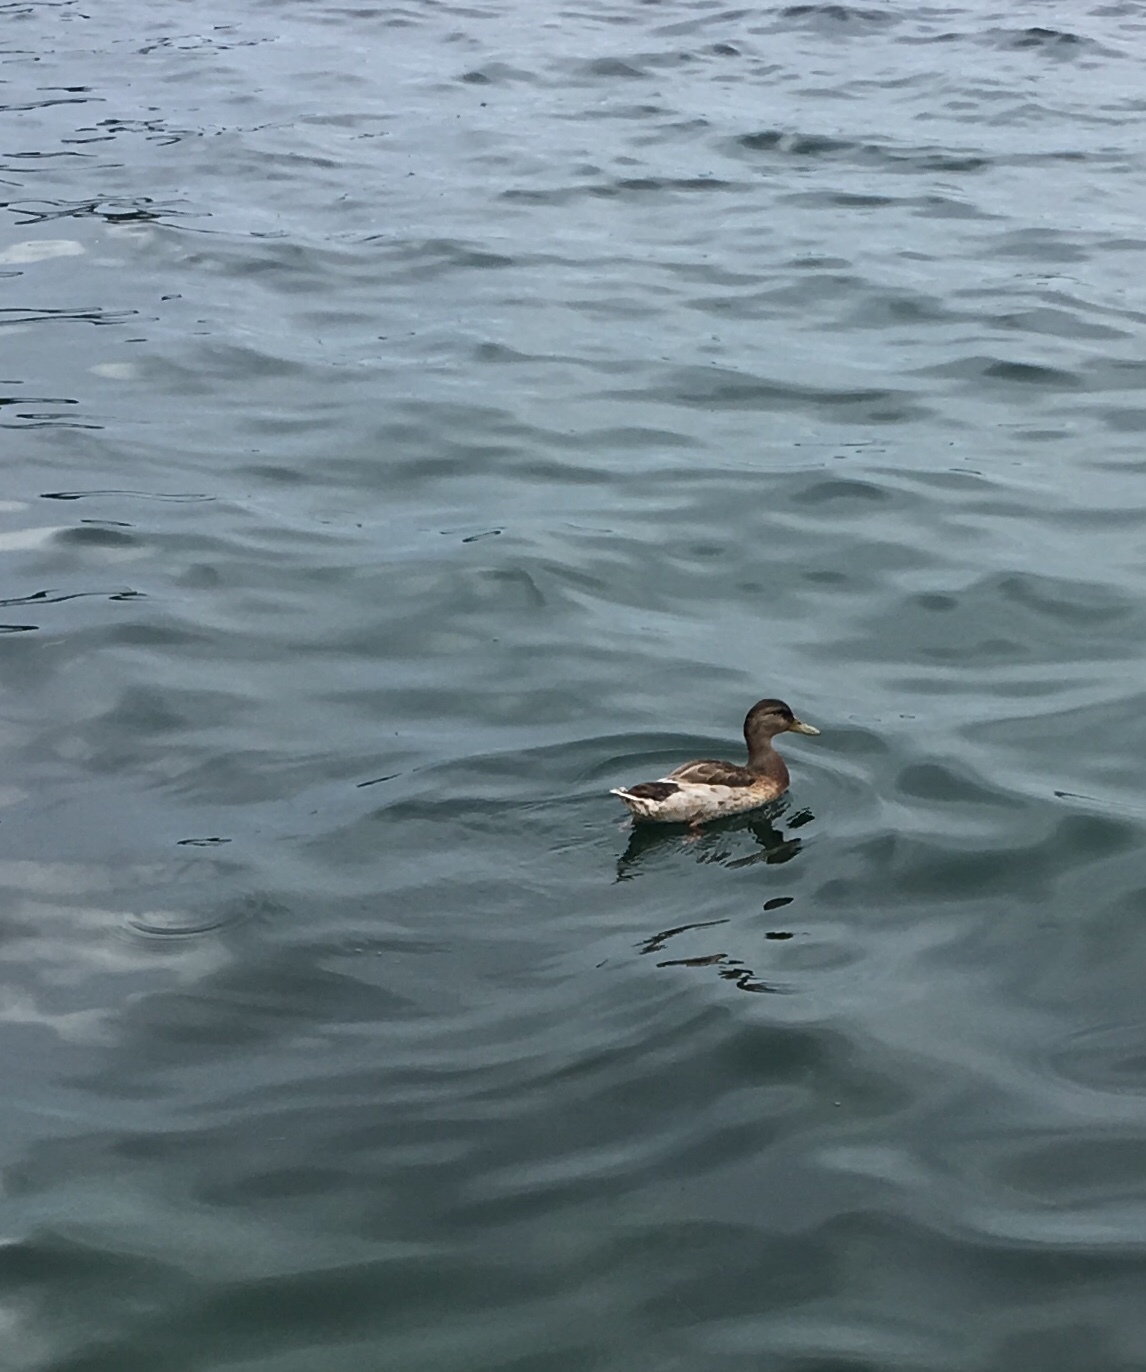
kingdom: Animalia
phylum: Chordata
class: Aves
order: Anseriformes
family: Anatidae
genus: Anas
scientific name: Anas platyrhynchos
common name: Mallard
